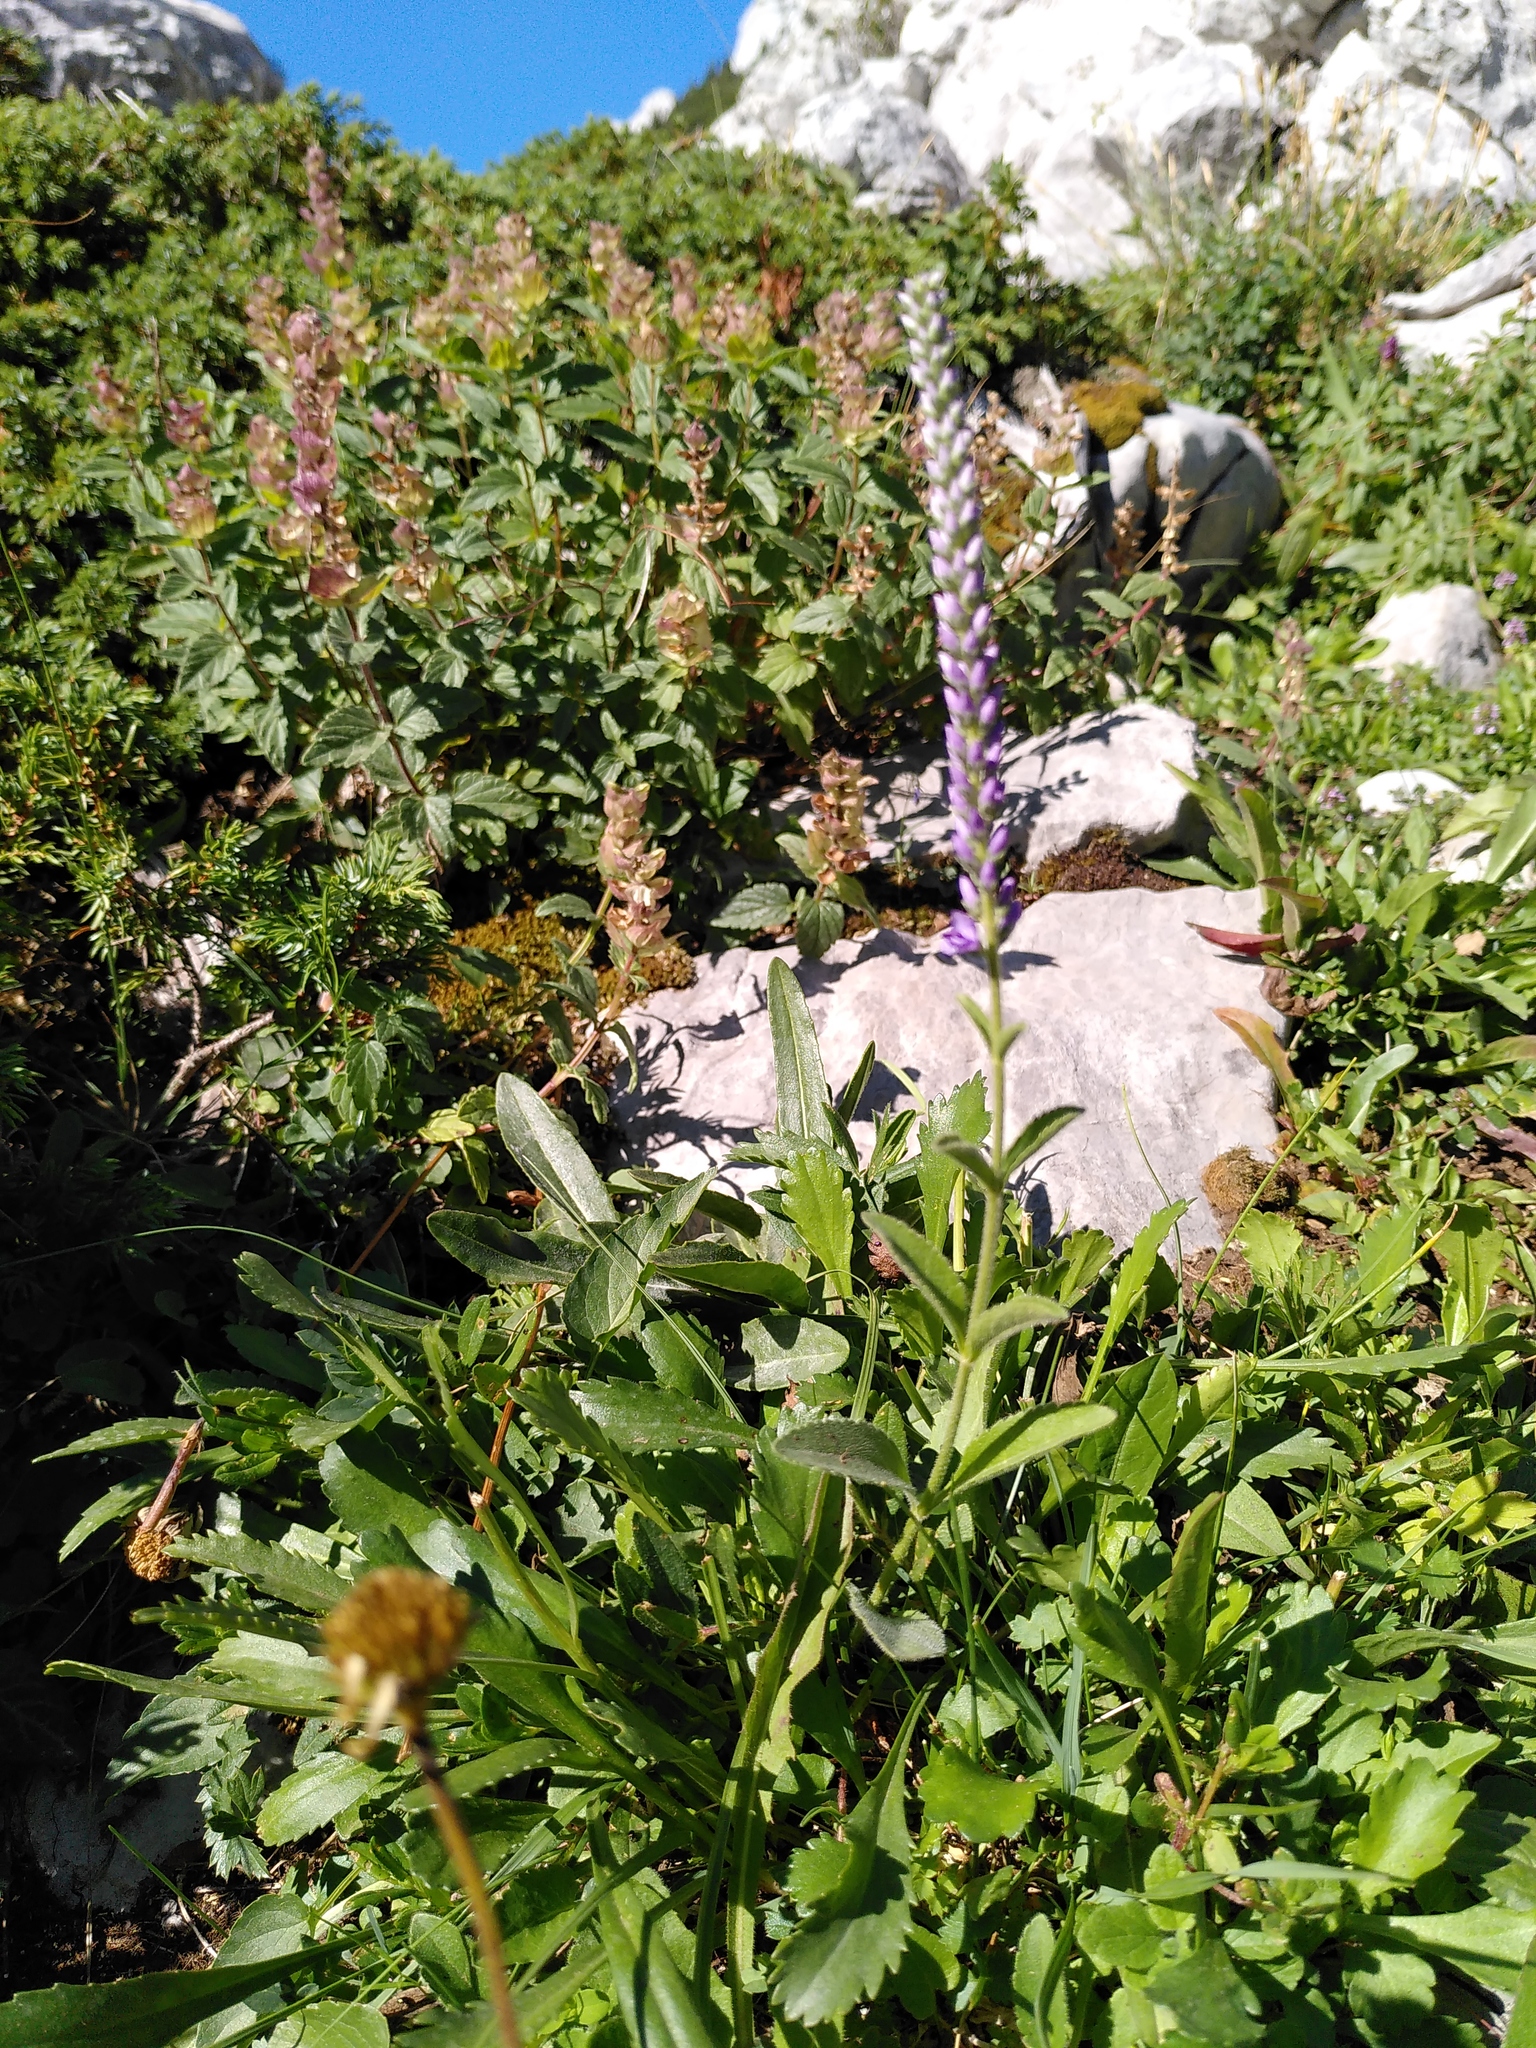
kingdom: Plantae
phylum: Tracheophyta
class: Magnoliopsida
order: Lamiales
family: Plantaginaceae
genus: Veronica
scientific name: Veronica barrelieri
